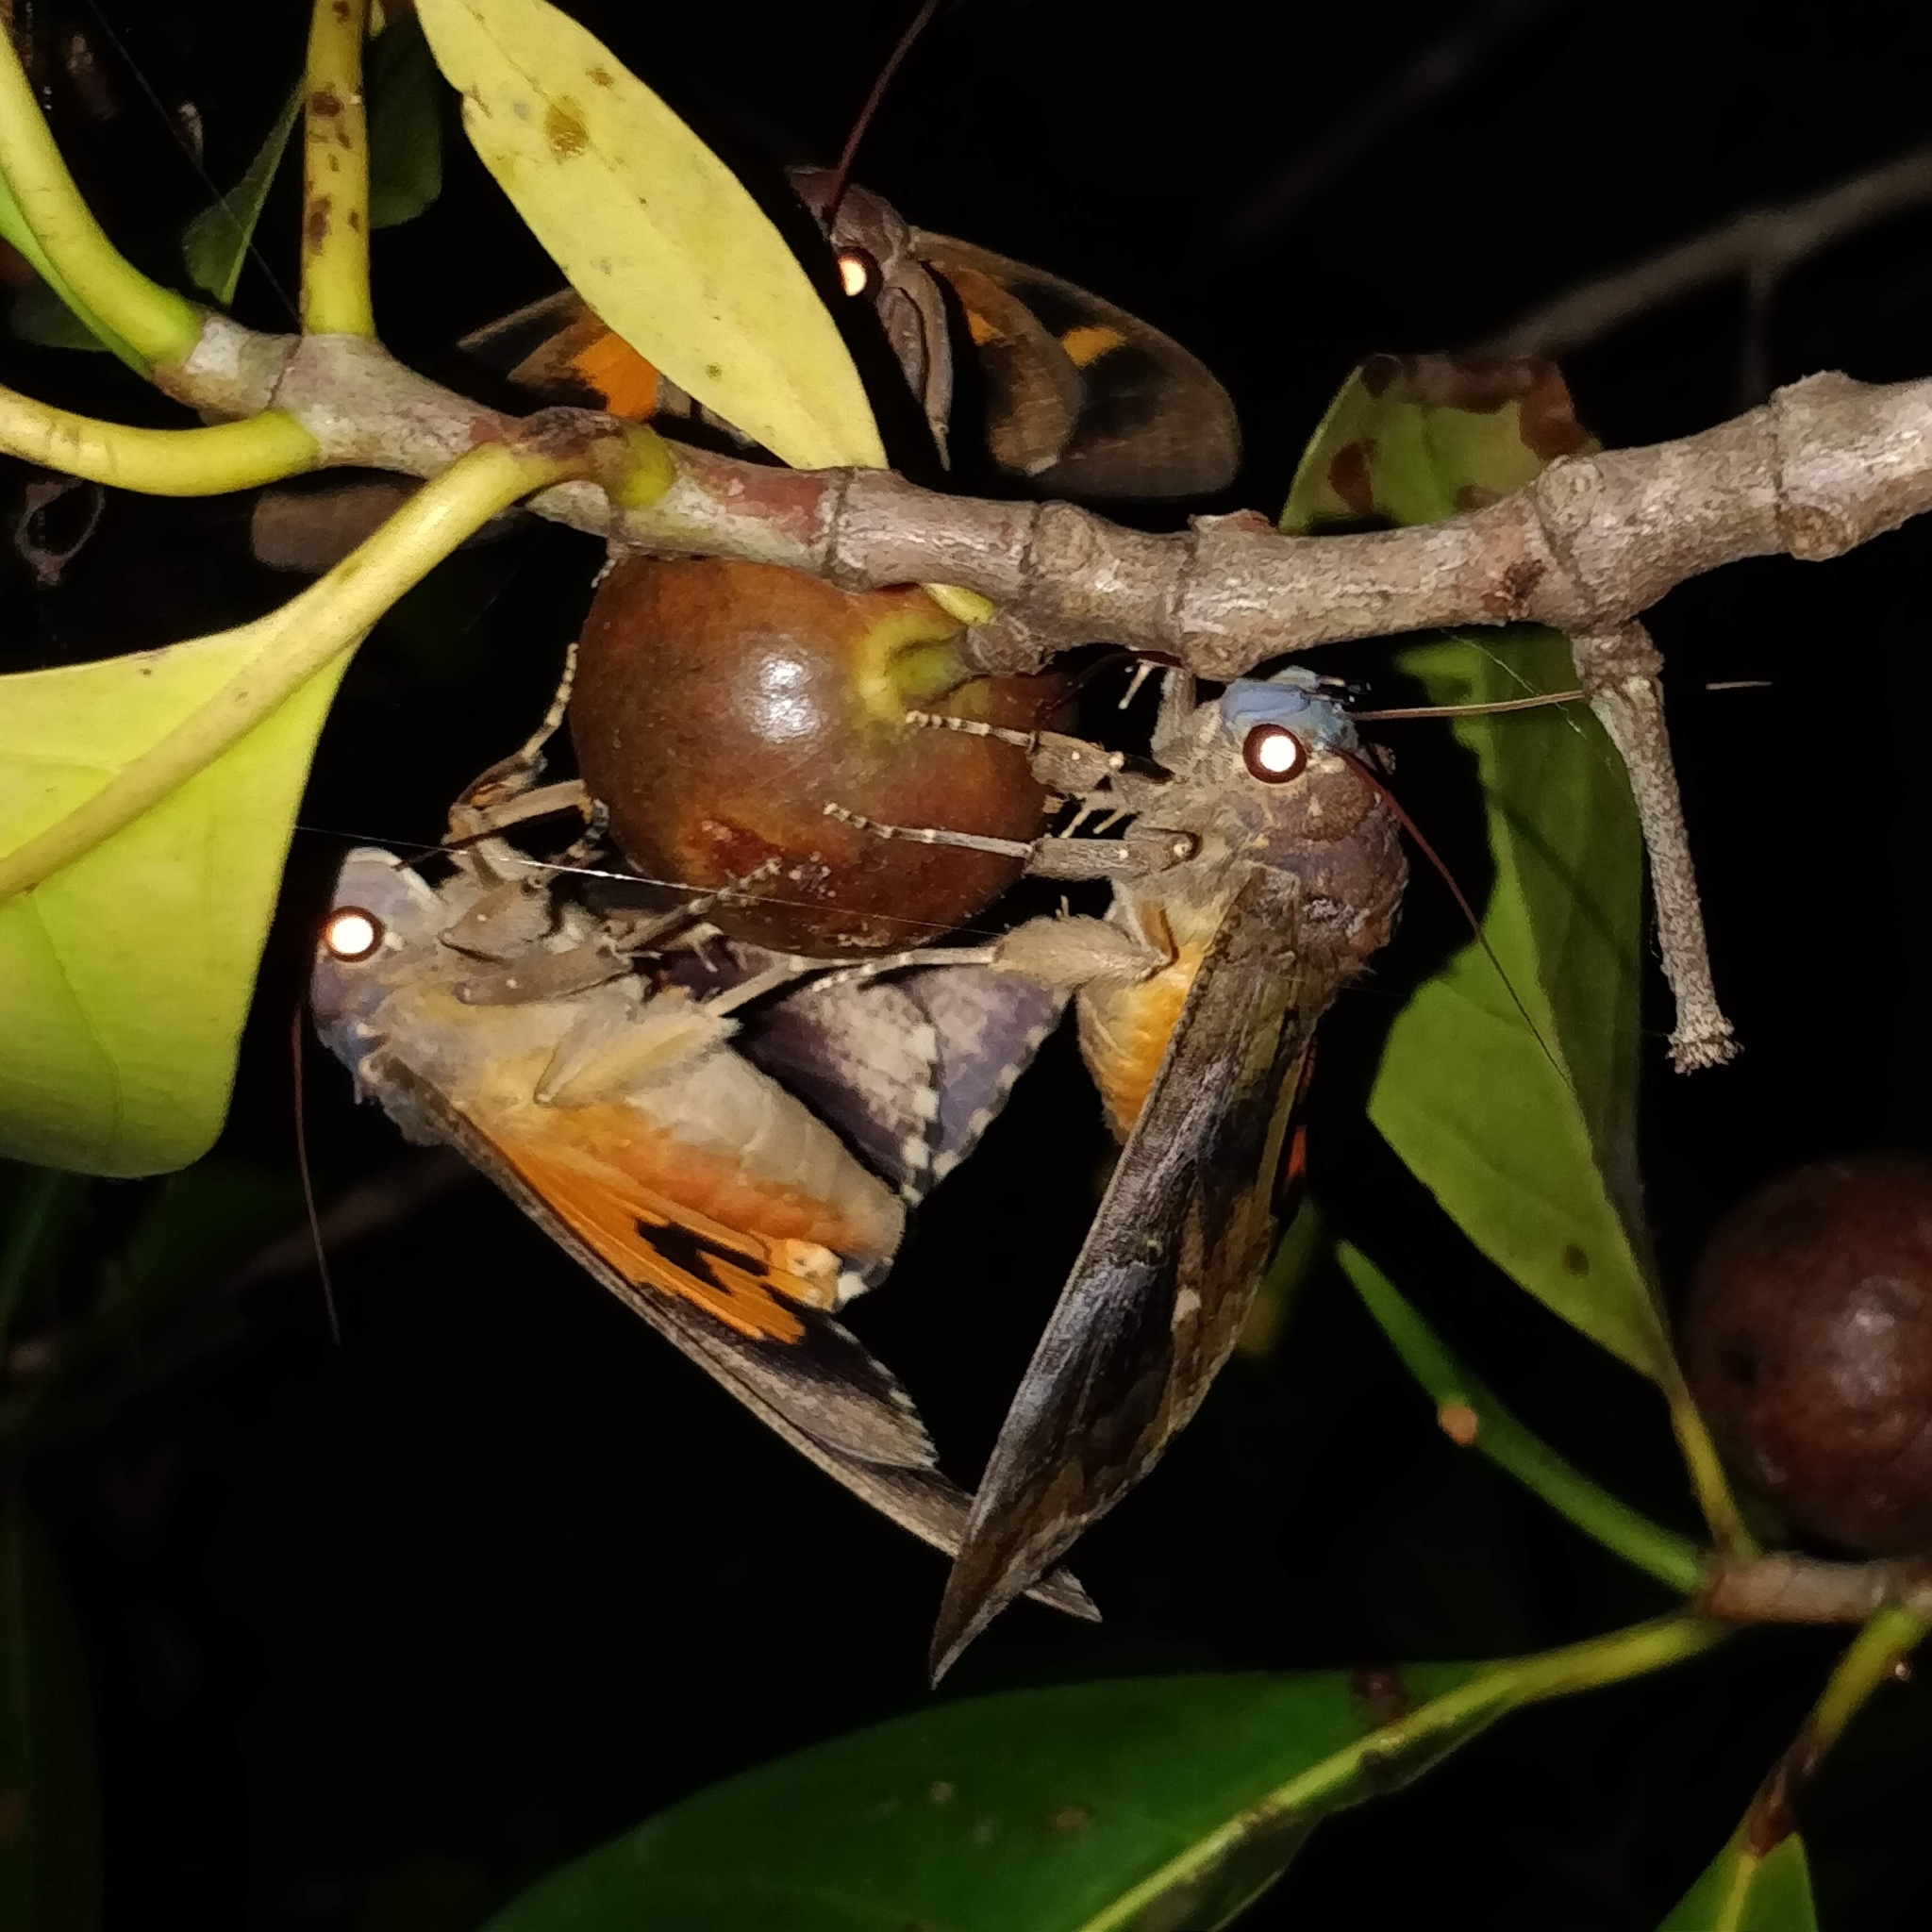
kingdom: Animalia
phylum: Arthropoda
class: Insecta
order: Lepidoptera
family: Erebidae
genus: Eudocima
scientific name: Eudocima phalonia
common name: Wasp
